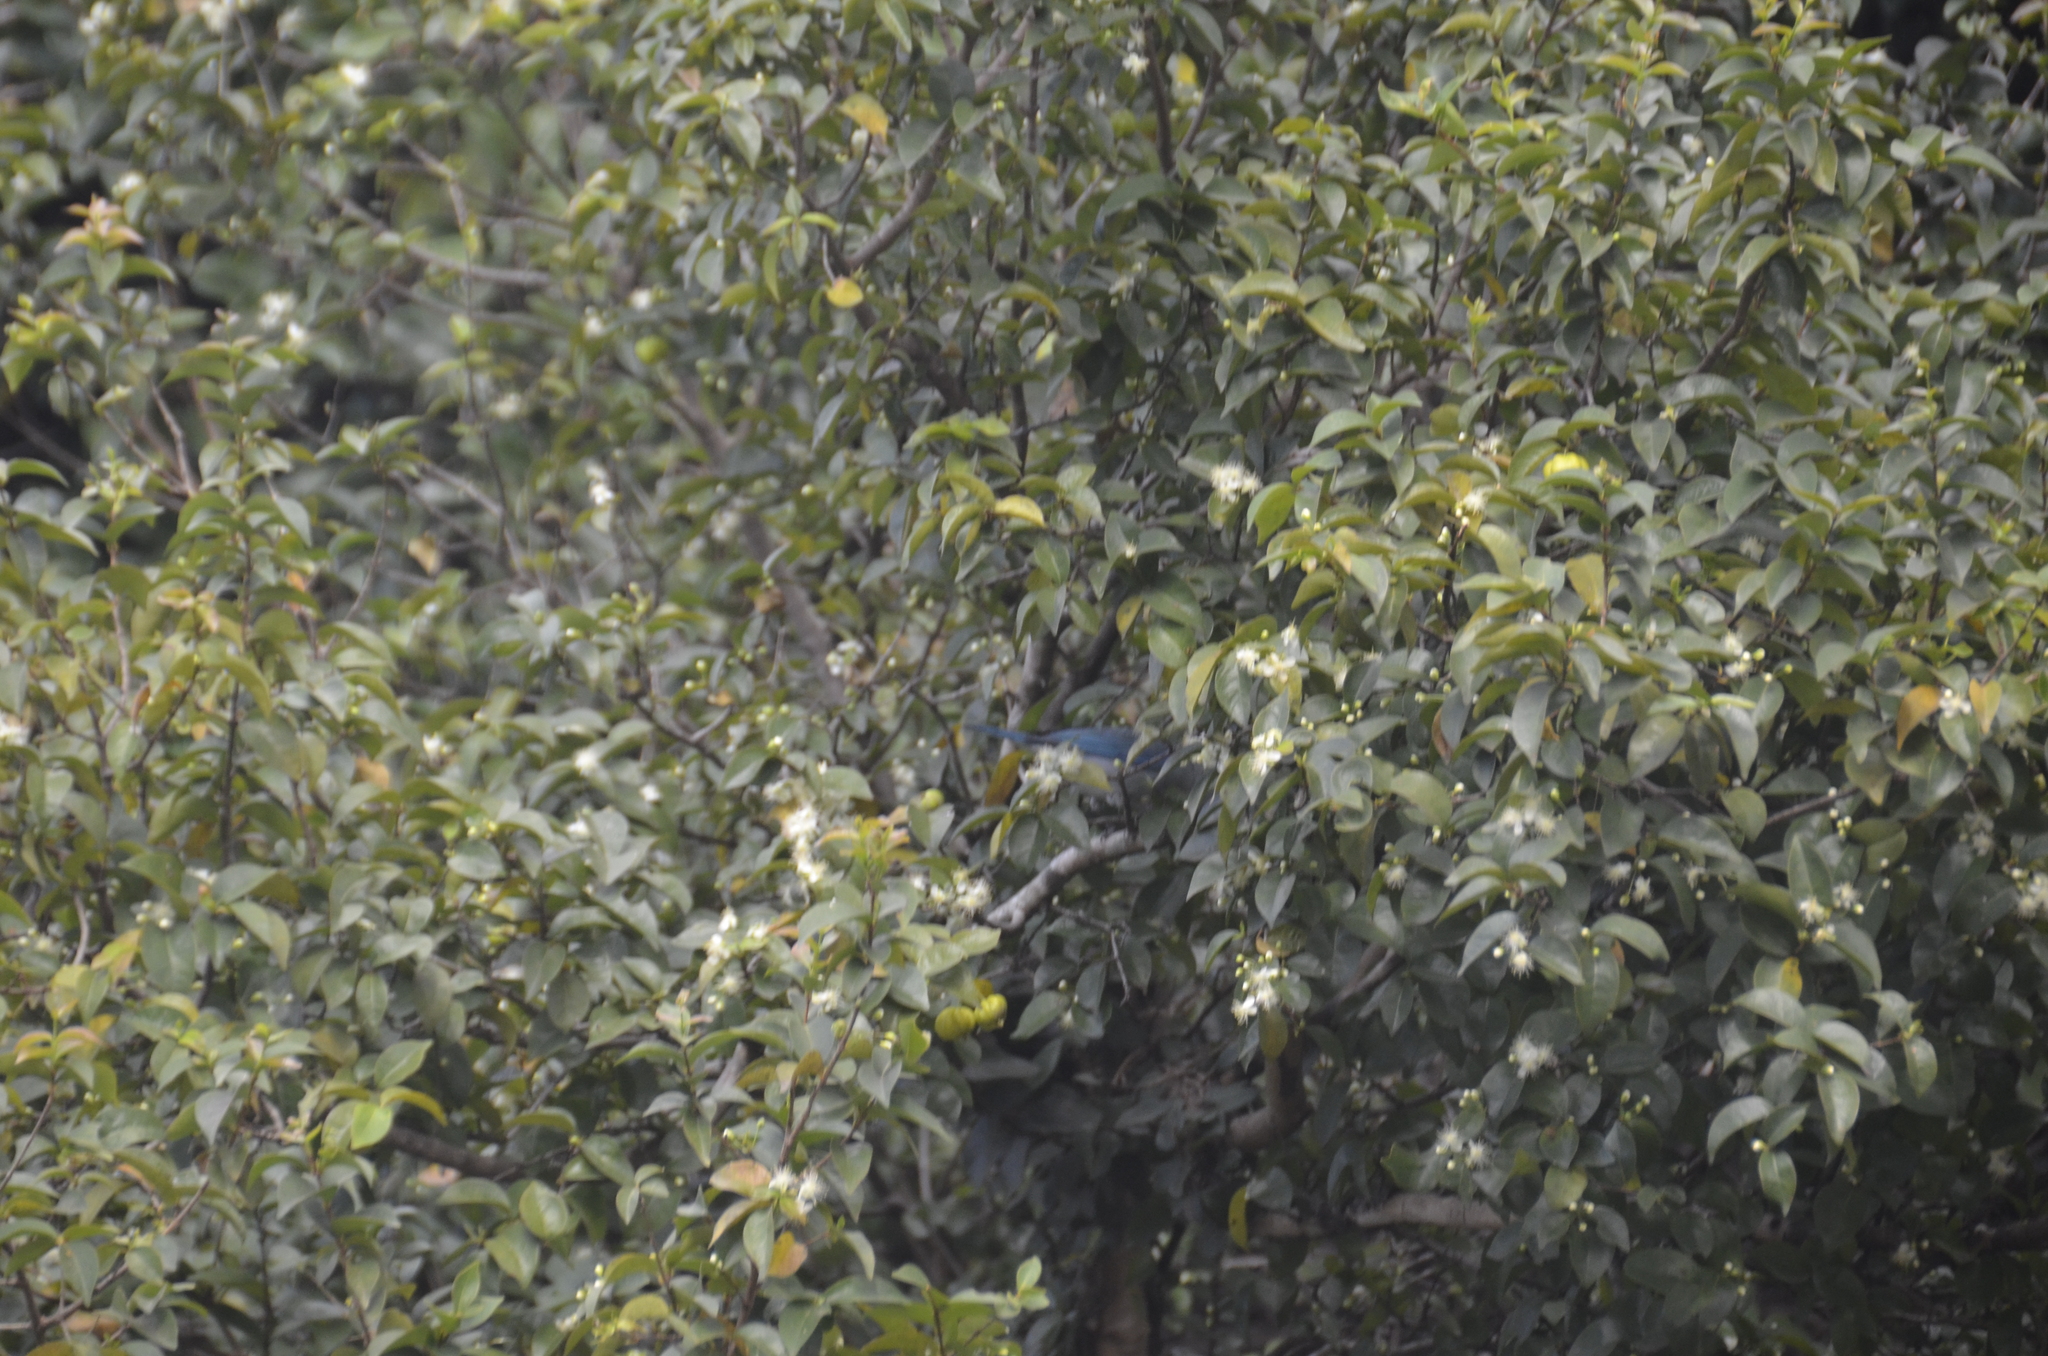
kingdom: Animalia
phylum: Chordata
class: Aves
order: Passeriformes
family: Thraupidae
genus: Thraupis
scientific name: Thraupis episcopus
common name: Blue-grey tanager
